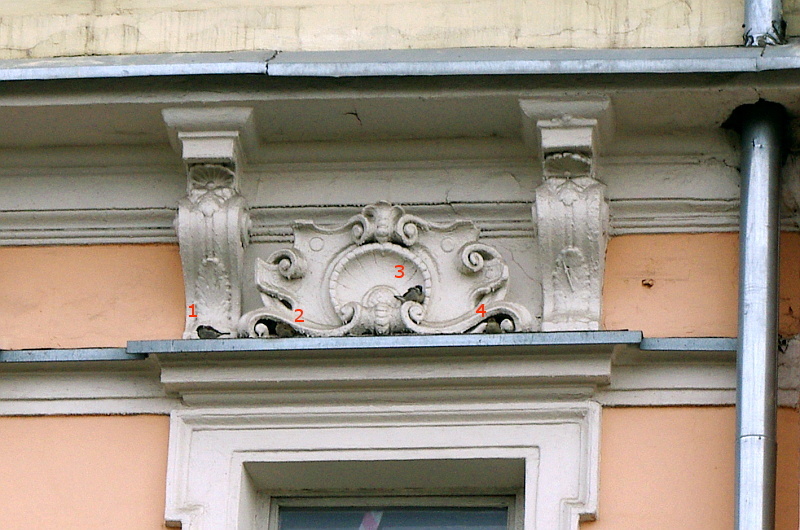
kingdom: Animalia
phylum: Chordata
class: Aves
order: Passeriformes
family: Passeridae
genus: Passer
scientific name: Passer domesticus
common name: House sparrow
